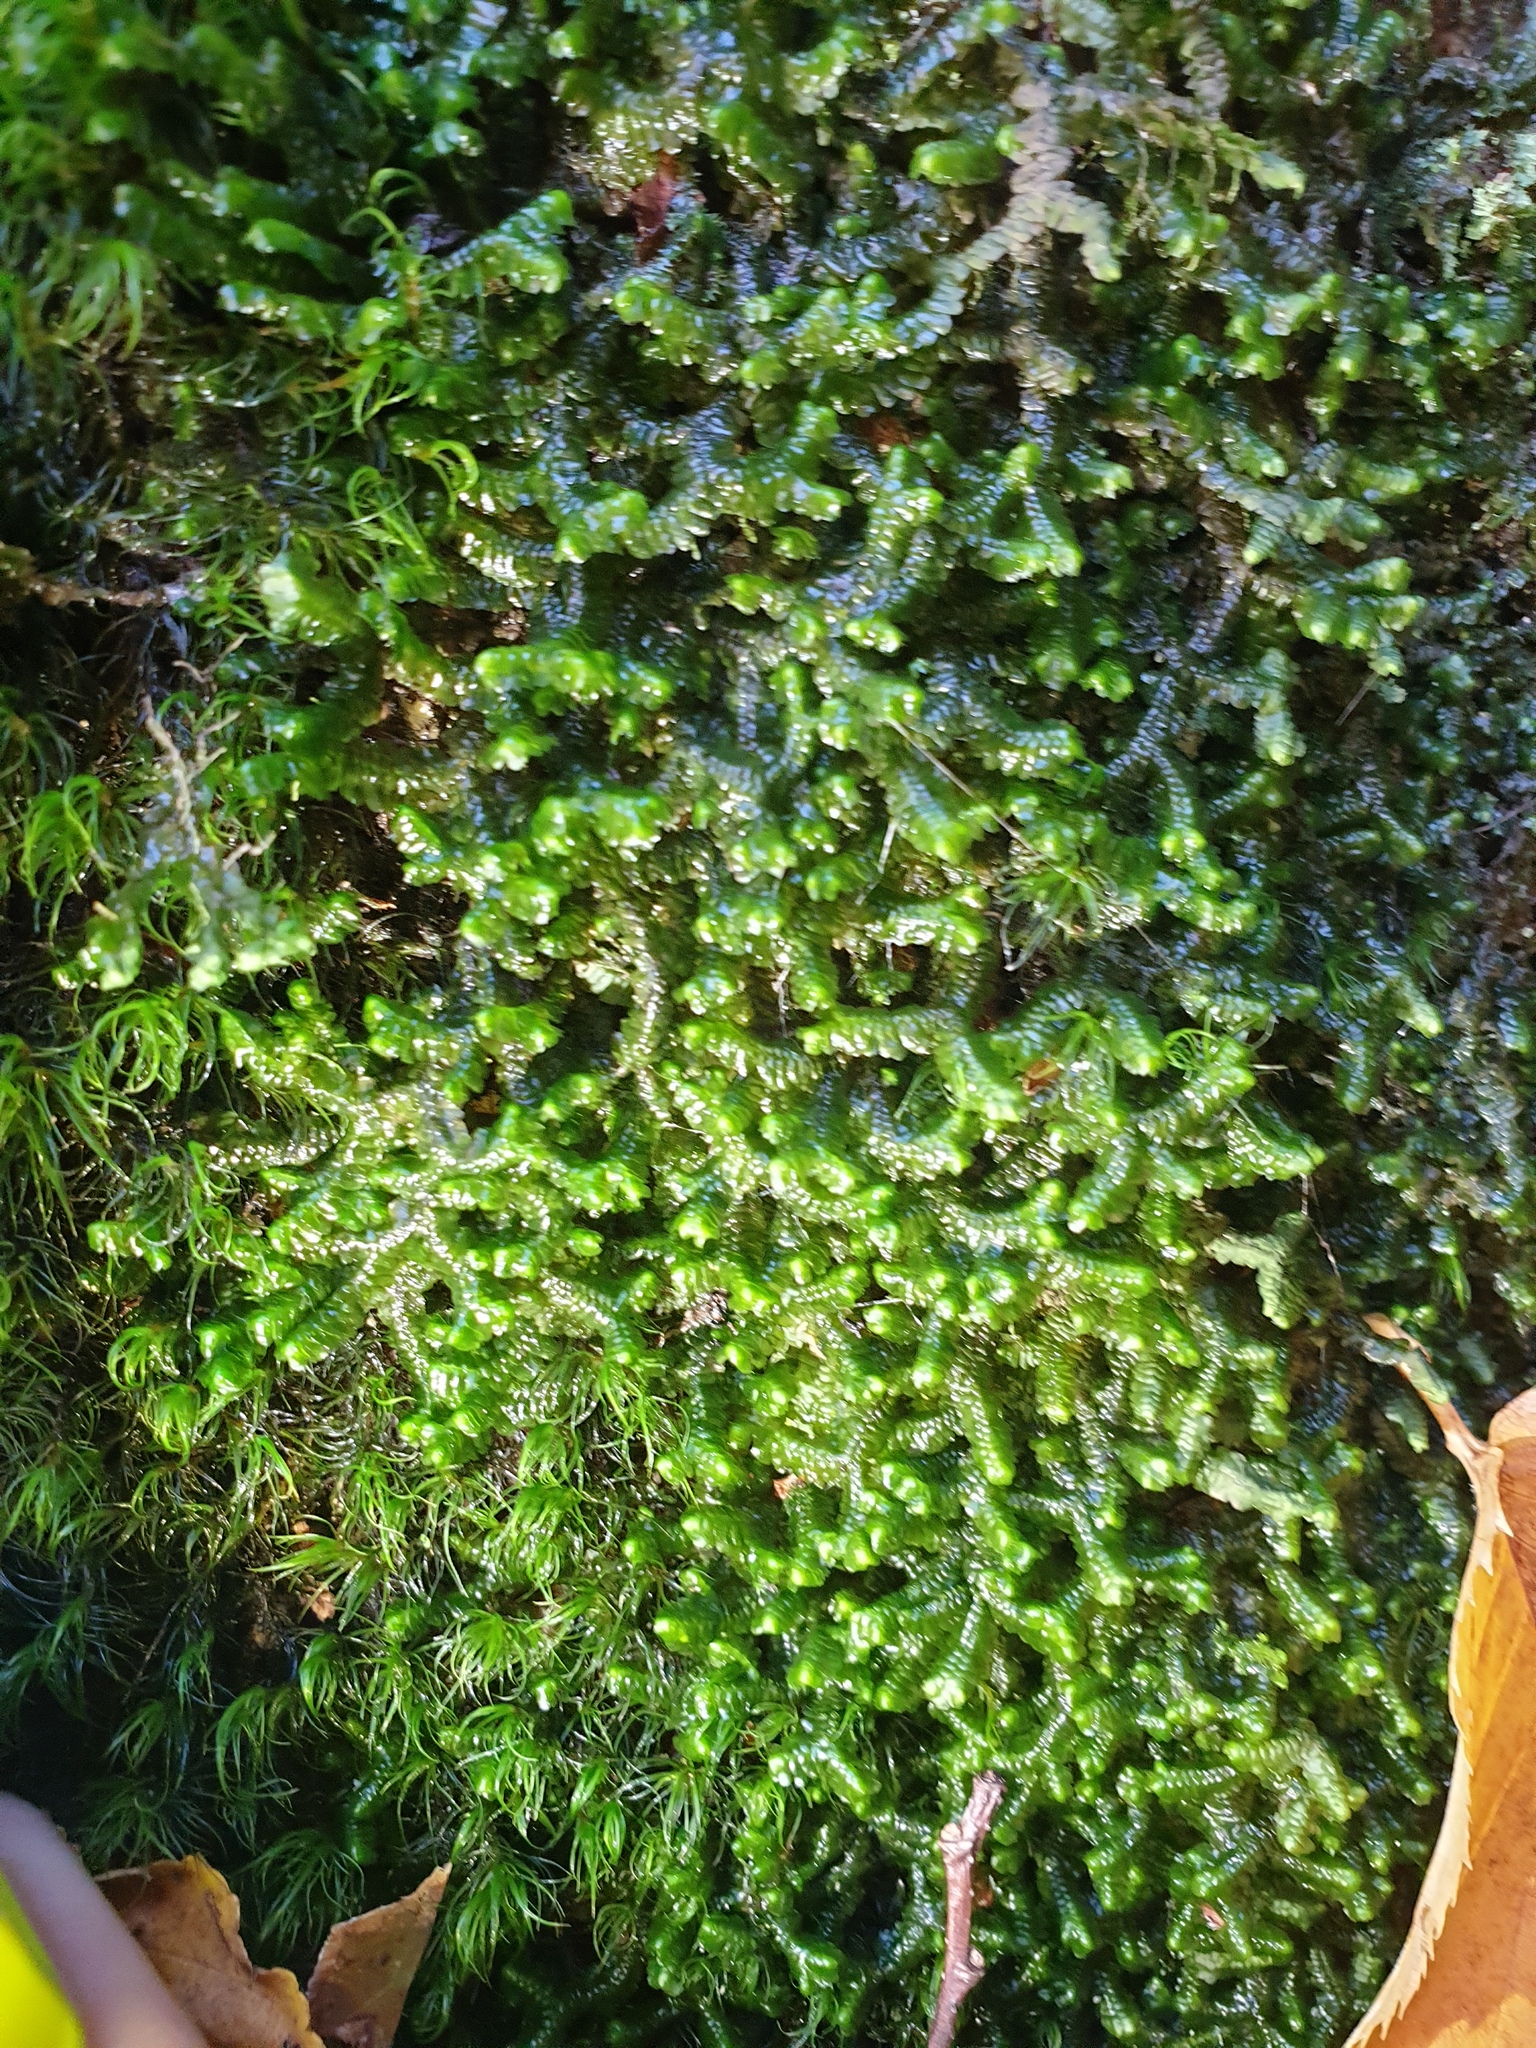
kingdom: Plantae
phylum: Marchantiophyta
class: Jungermanniopsida
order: Jungermanniales
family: Lepidoziaceae
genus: Bazzania
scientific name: Bazzania trilobata
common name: Three-lobed whipwort
